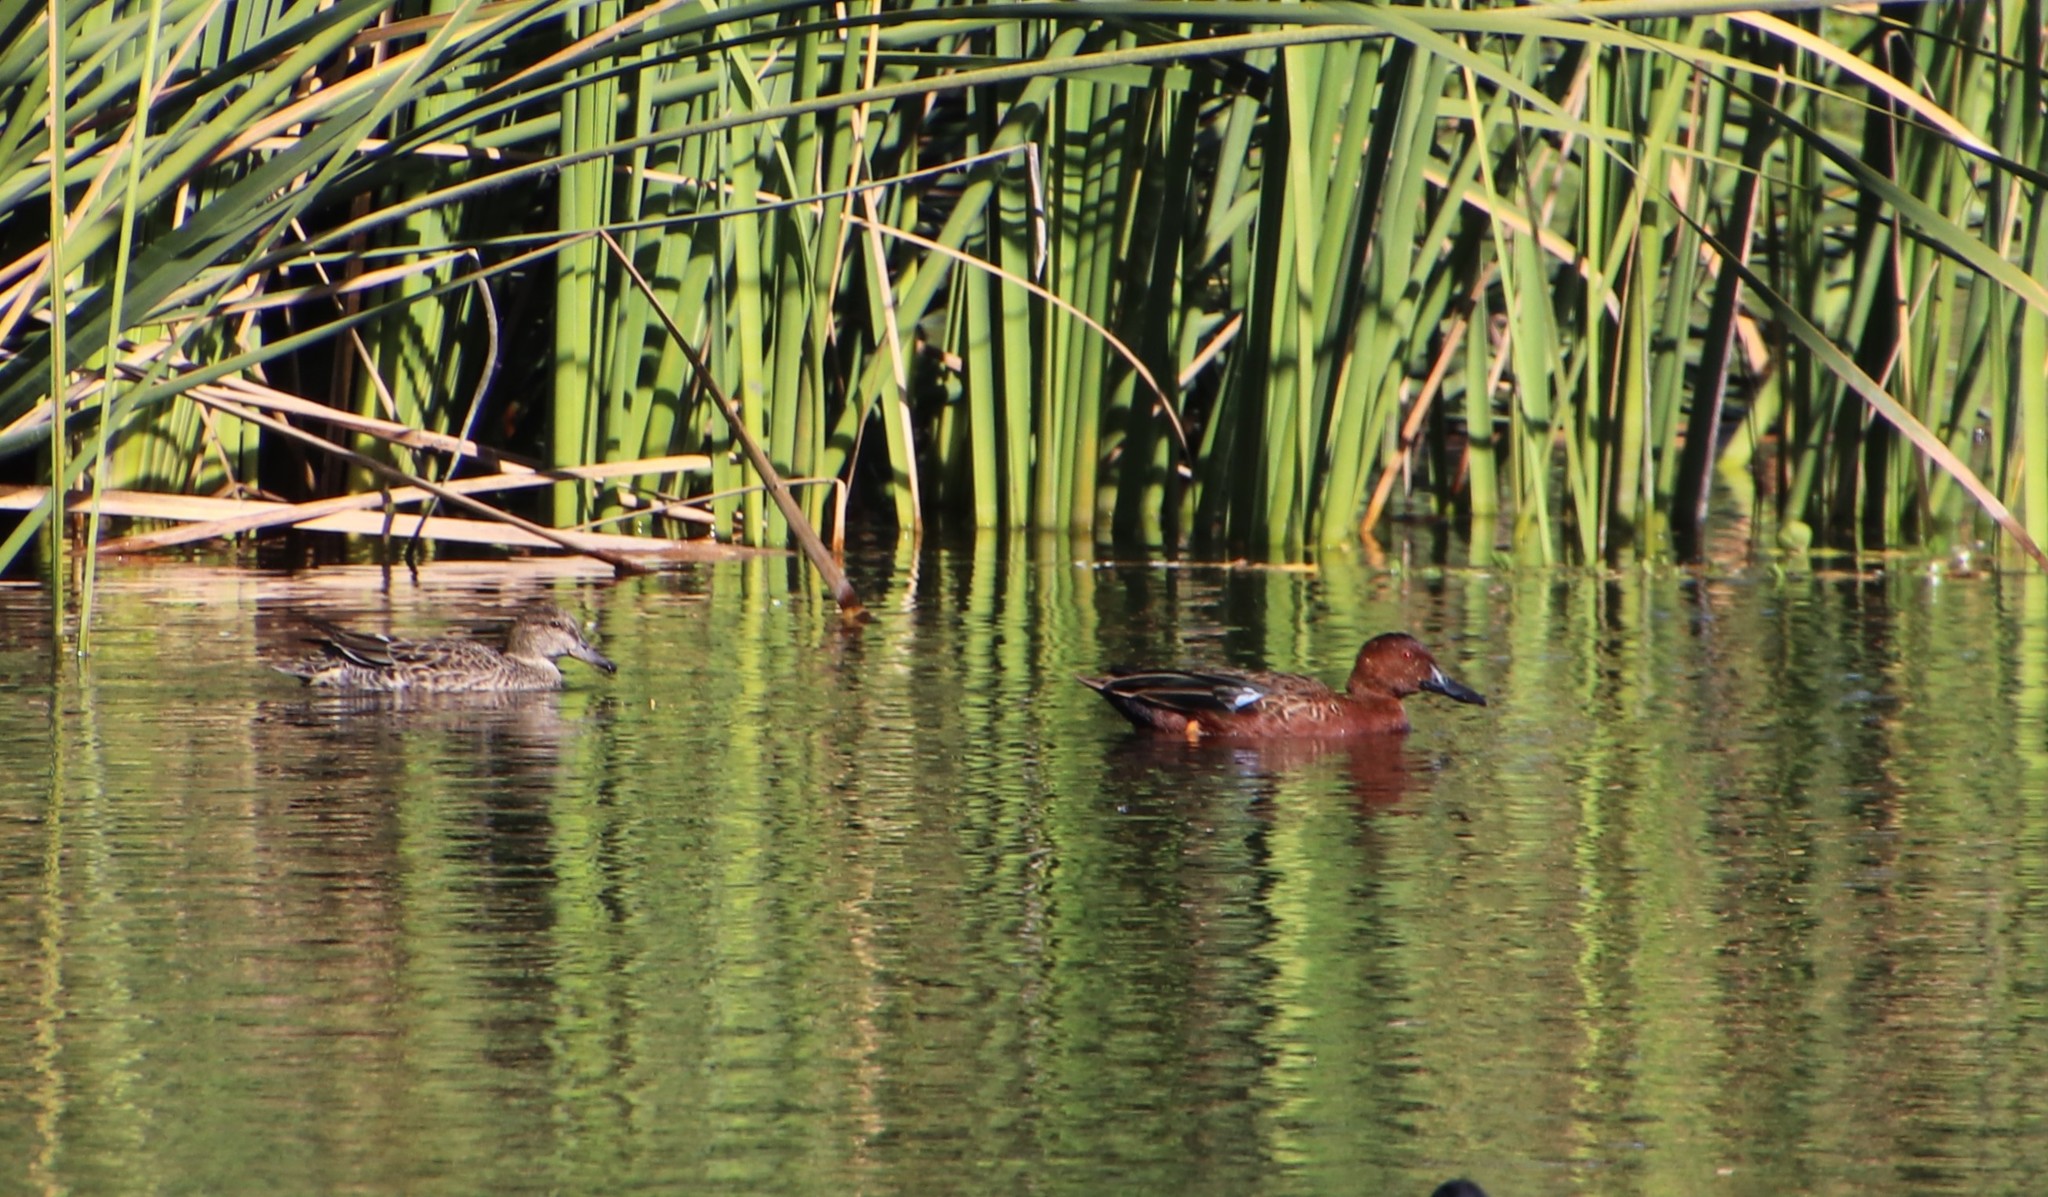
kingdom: Animalia
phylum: Chordata
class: Aves
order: Anseriformes
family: Anatidae
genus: Spatula
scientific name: Spatula cyanoptera
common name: Cinnamon teal
